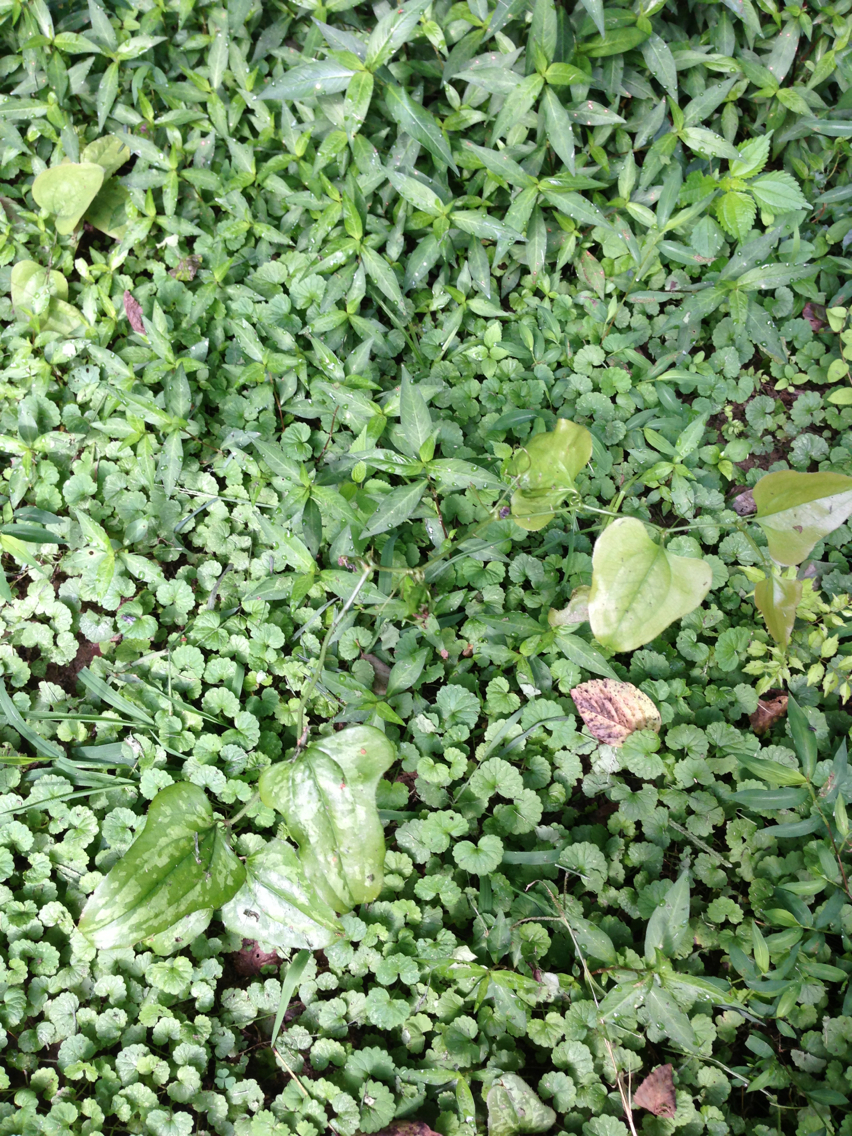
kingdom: Plantae
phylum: Tracheophyta
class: Liliopsida
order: Liliales
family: Smilacaceae
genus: Smilax
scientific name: Smilax bona-nox
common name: Catbrier
